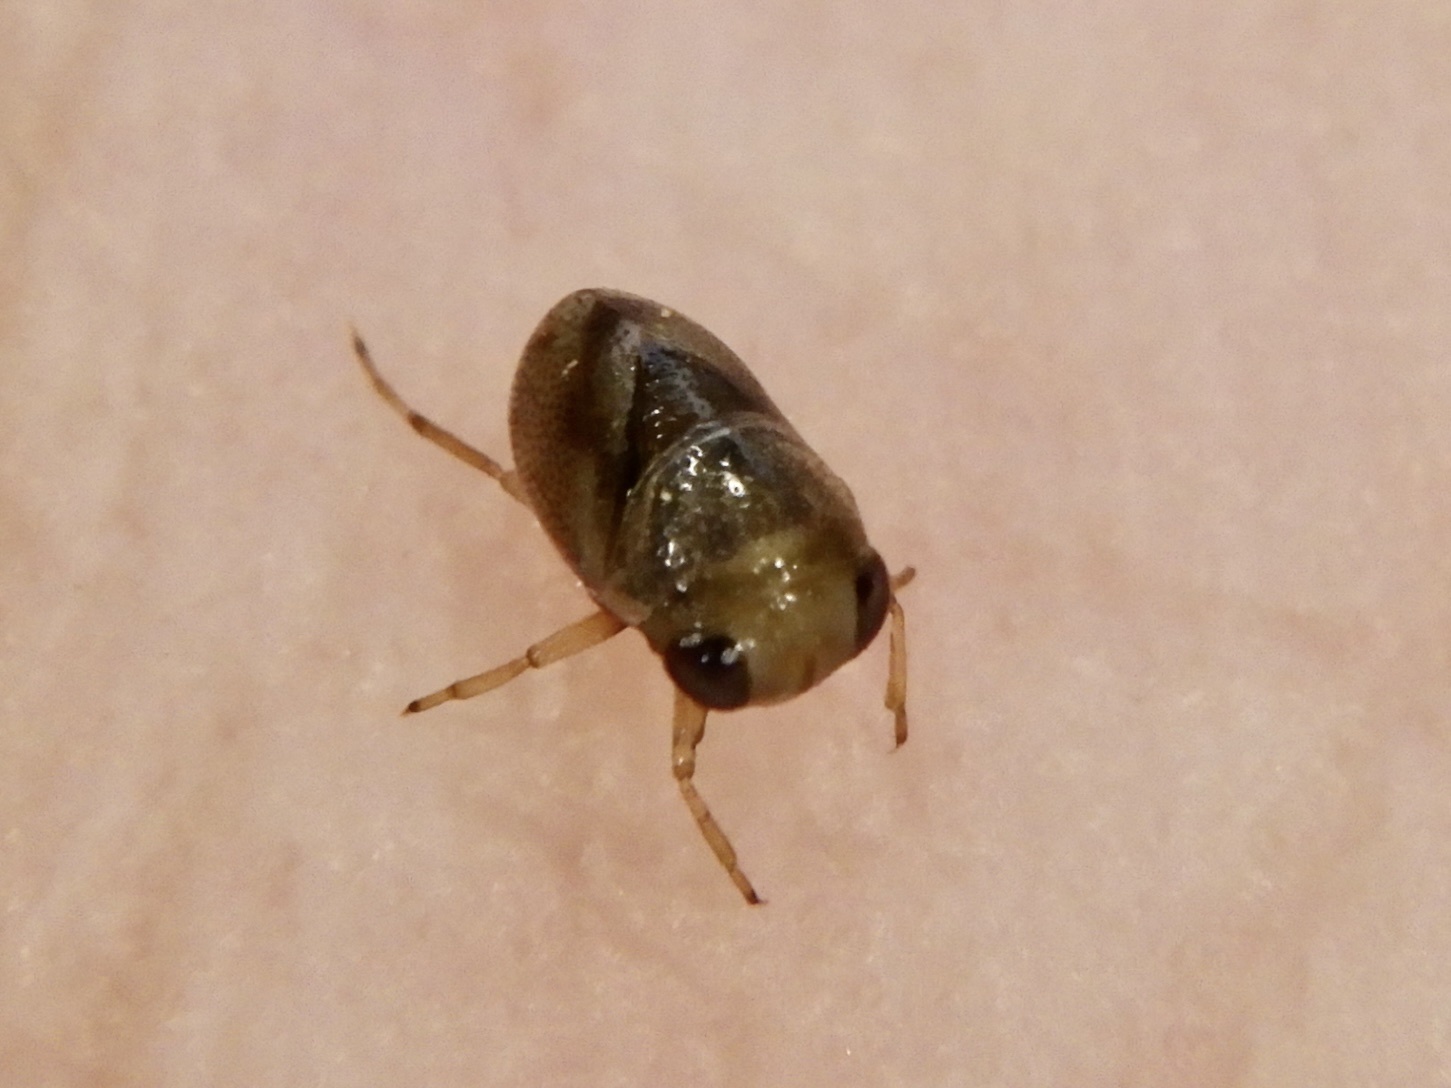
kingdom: Animalia
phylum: Arthropoda
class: Insecta
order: Hemiptera
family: Pleidae
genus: Paraplea
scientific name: Paraplea japonica
